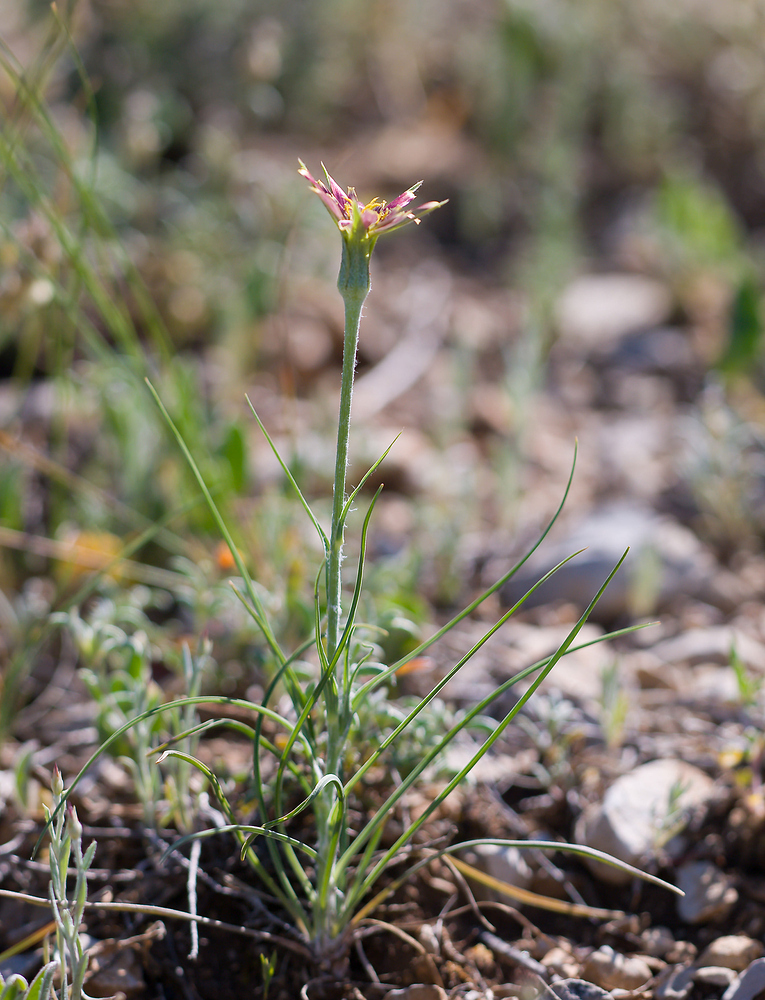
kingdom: Plantae
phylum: Tracheophyta
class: Magnoliopsida
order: Asterales
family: Asteraceae
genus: Tragopogon
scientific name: Tragopogon crocifolius
